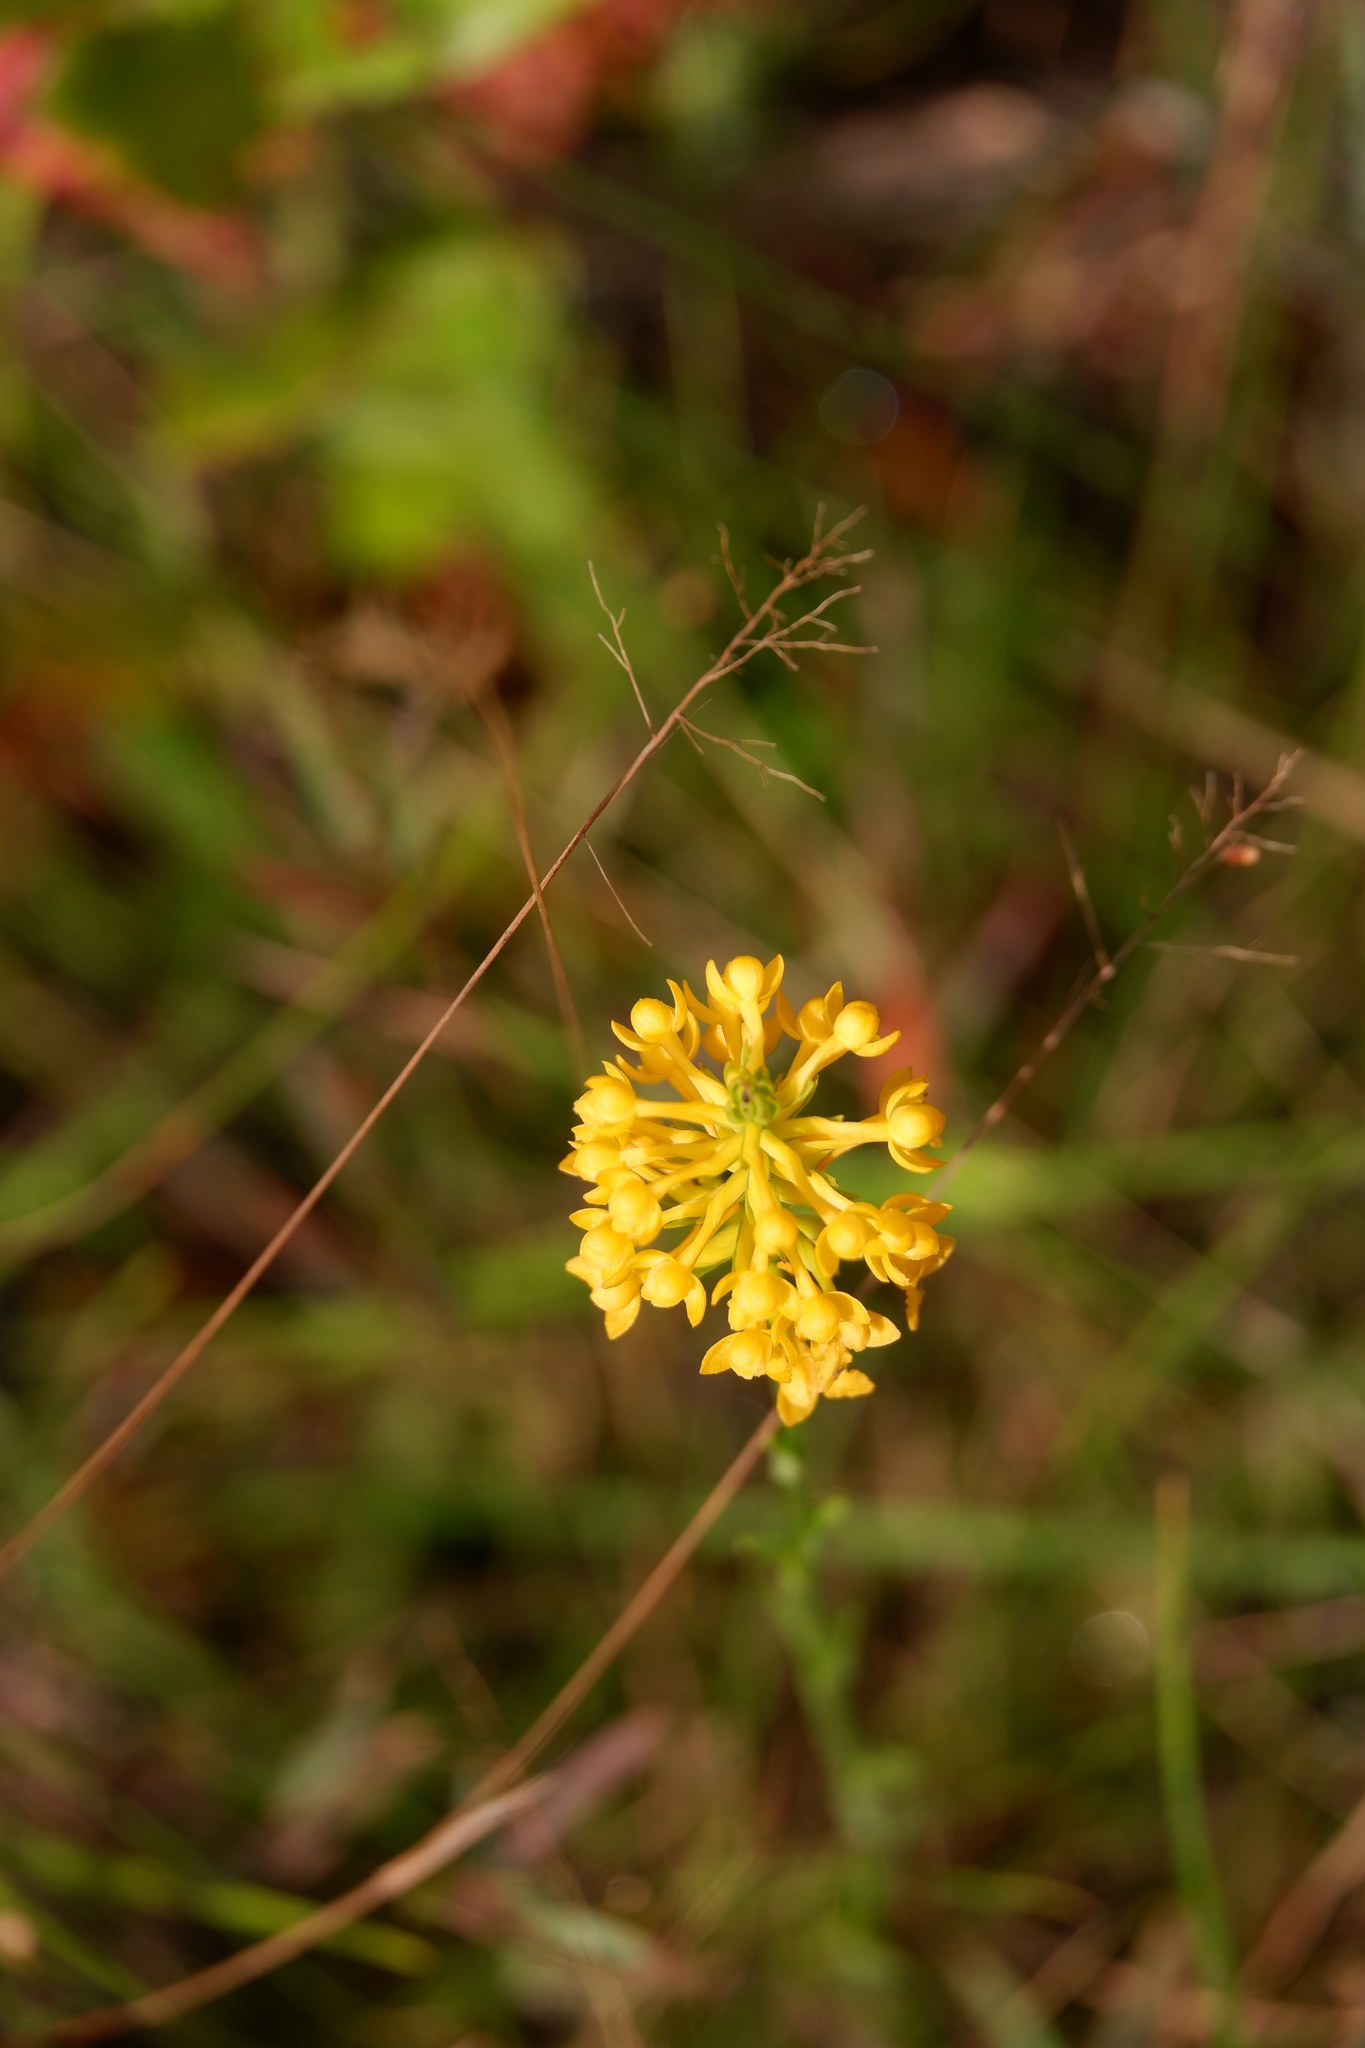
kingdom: Plantae
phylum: Tracheophyta
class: Liliopsida
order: Asparagales
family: Orchidaceae
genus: Platanthera
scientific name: Platanthera integra
